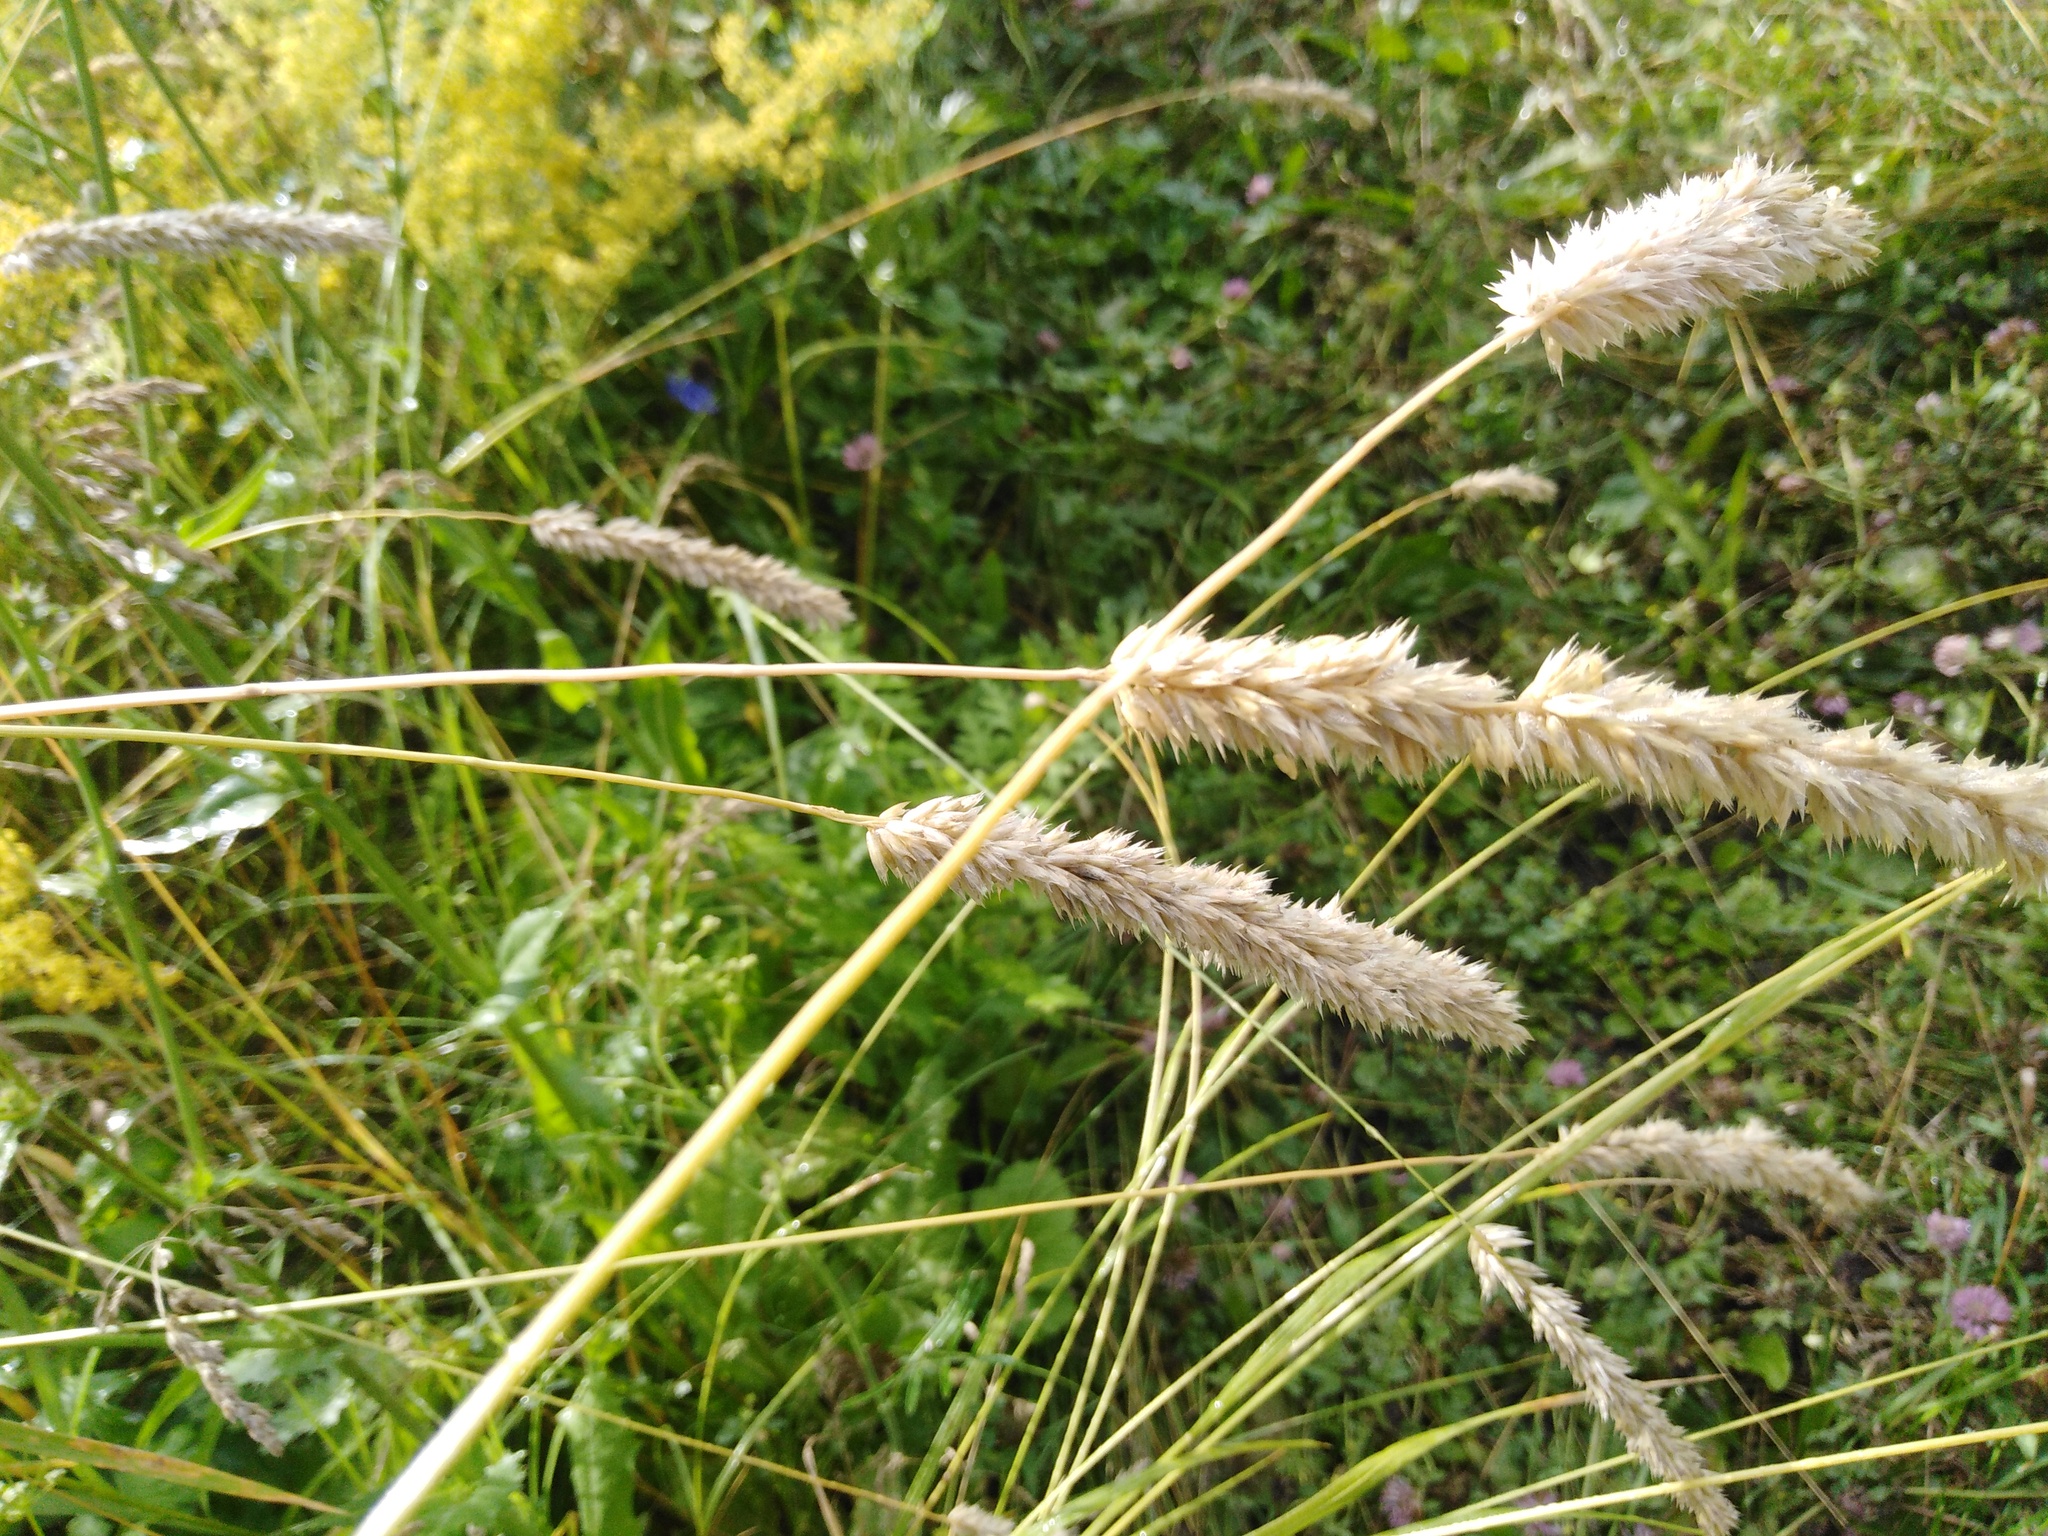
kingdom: Plantae
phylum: Tracheophyta
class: Liliopsida
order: Poales
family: Poaceae
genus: Melica
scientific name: Melica transsilvanica
